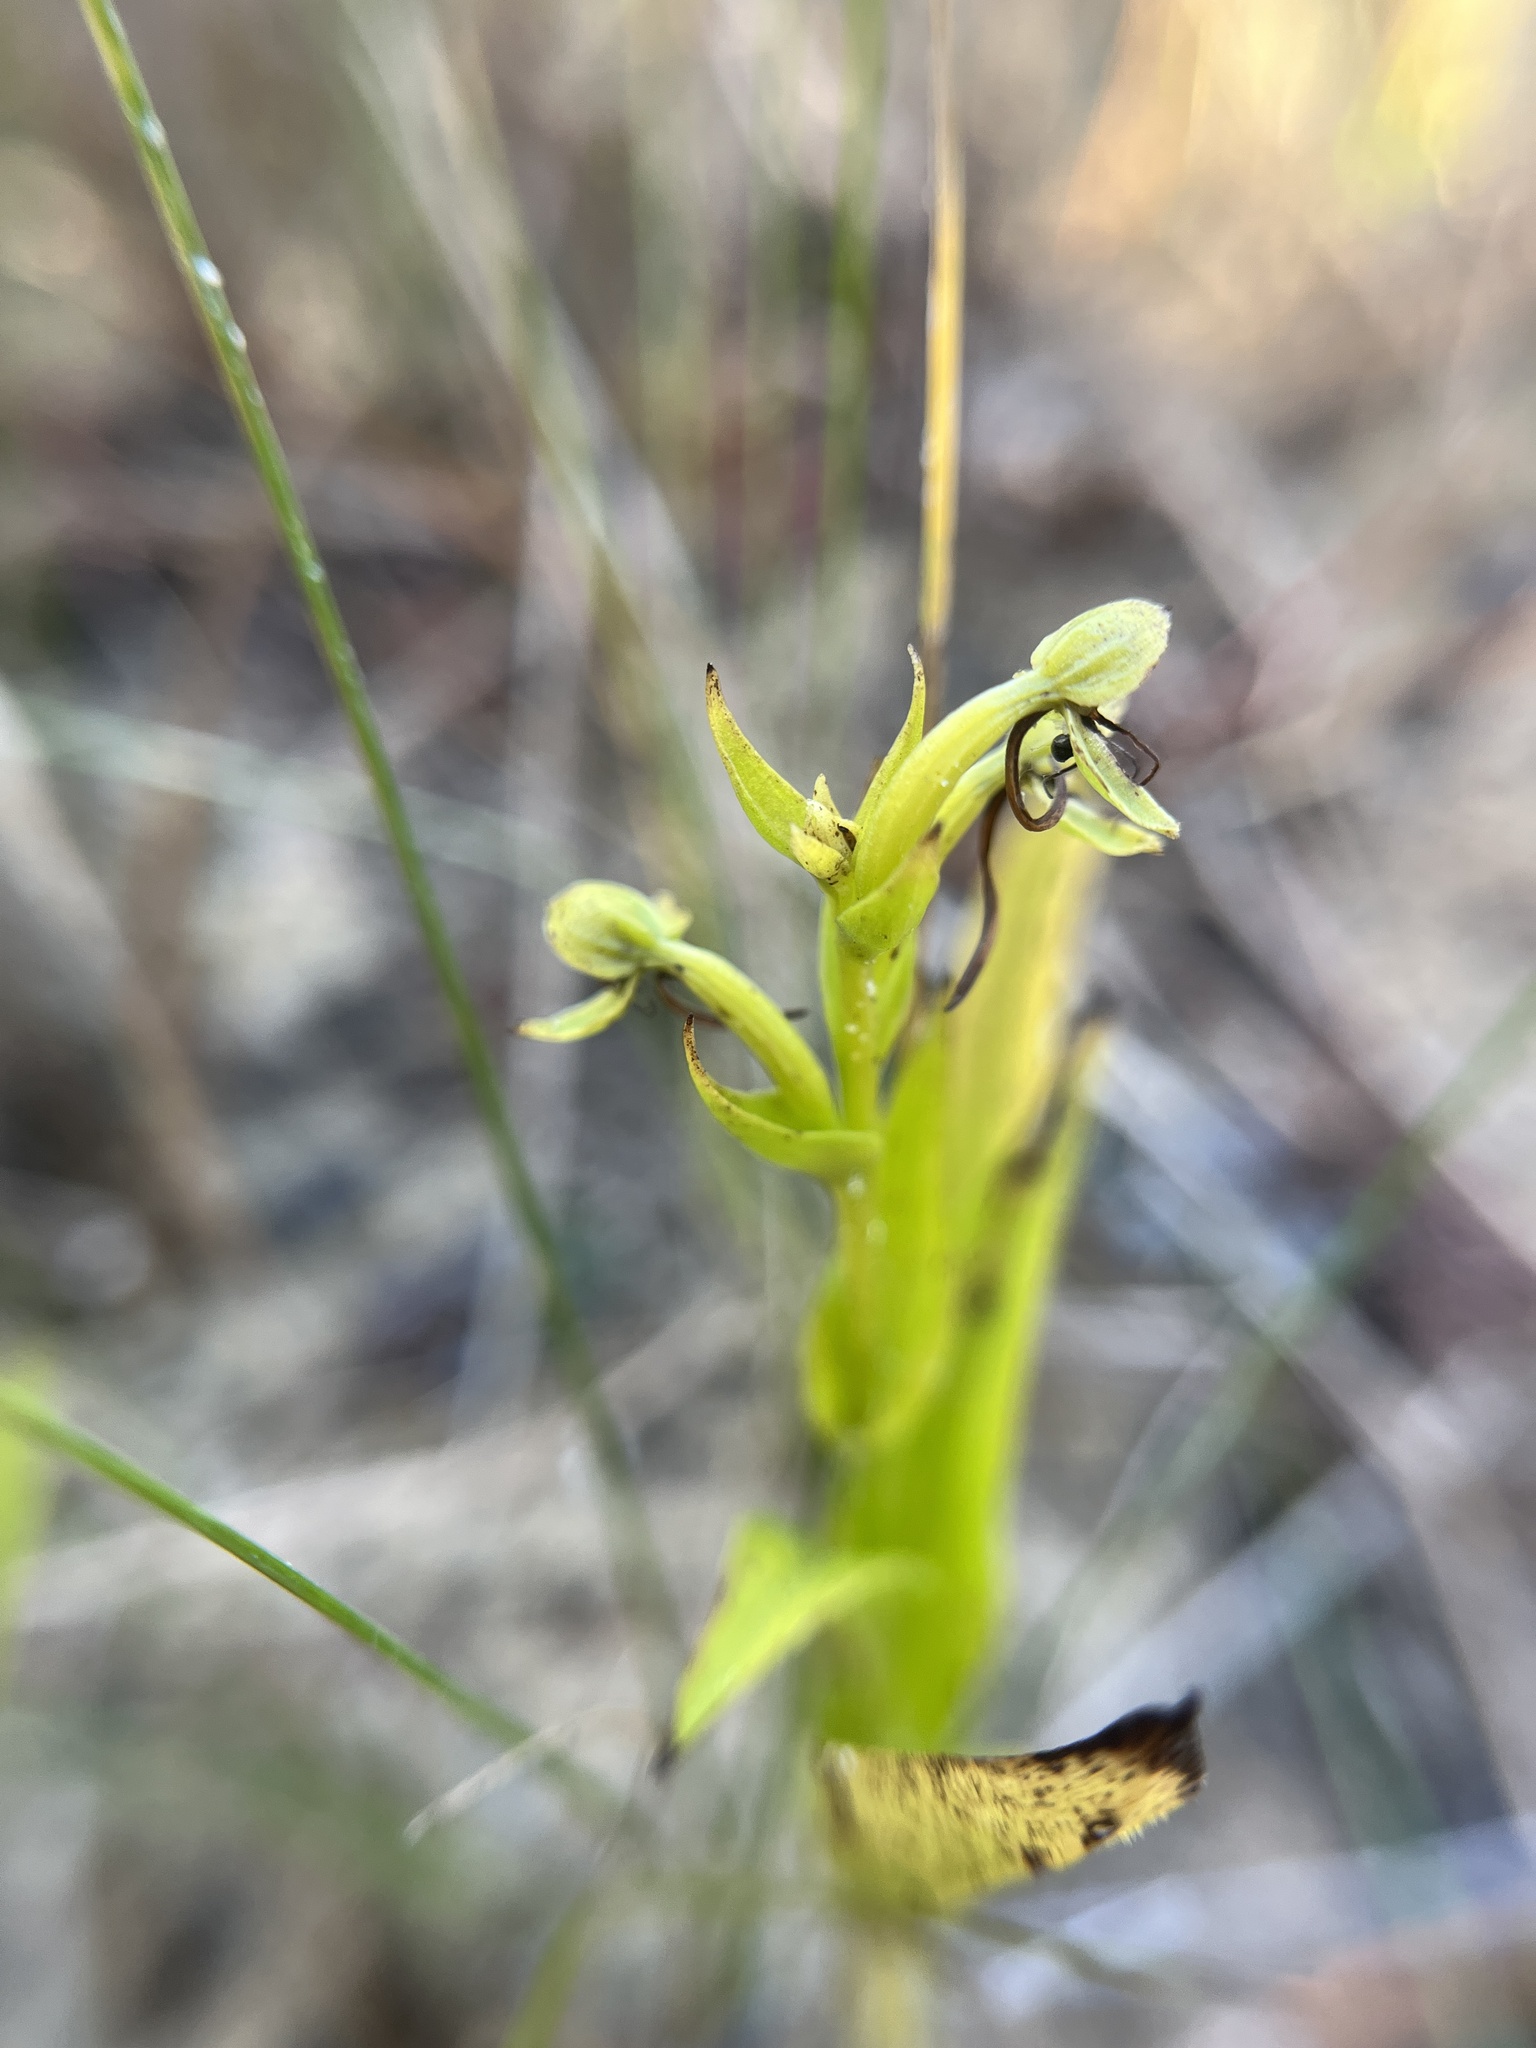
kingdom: Plantae
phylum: Tracheophyta
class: Liliopsida
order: Asparagales
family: Orchidaceae
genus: Habenaria
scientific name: Habenaria repens
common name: Water orchid
